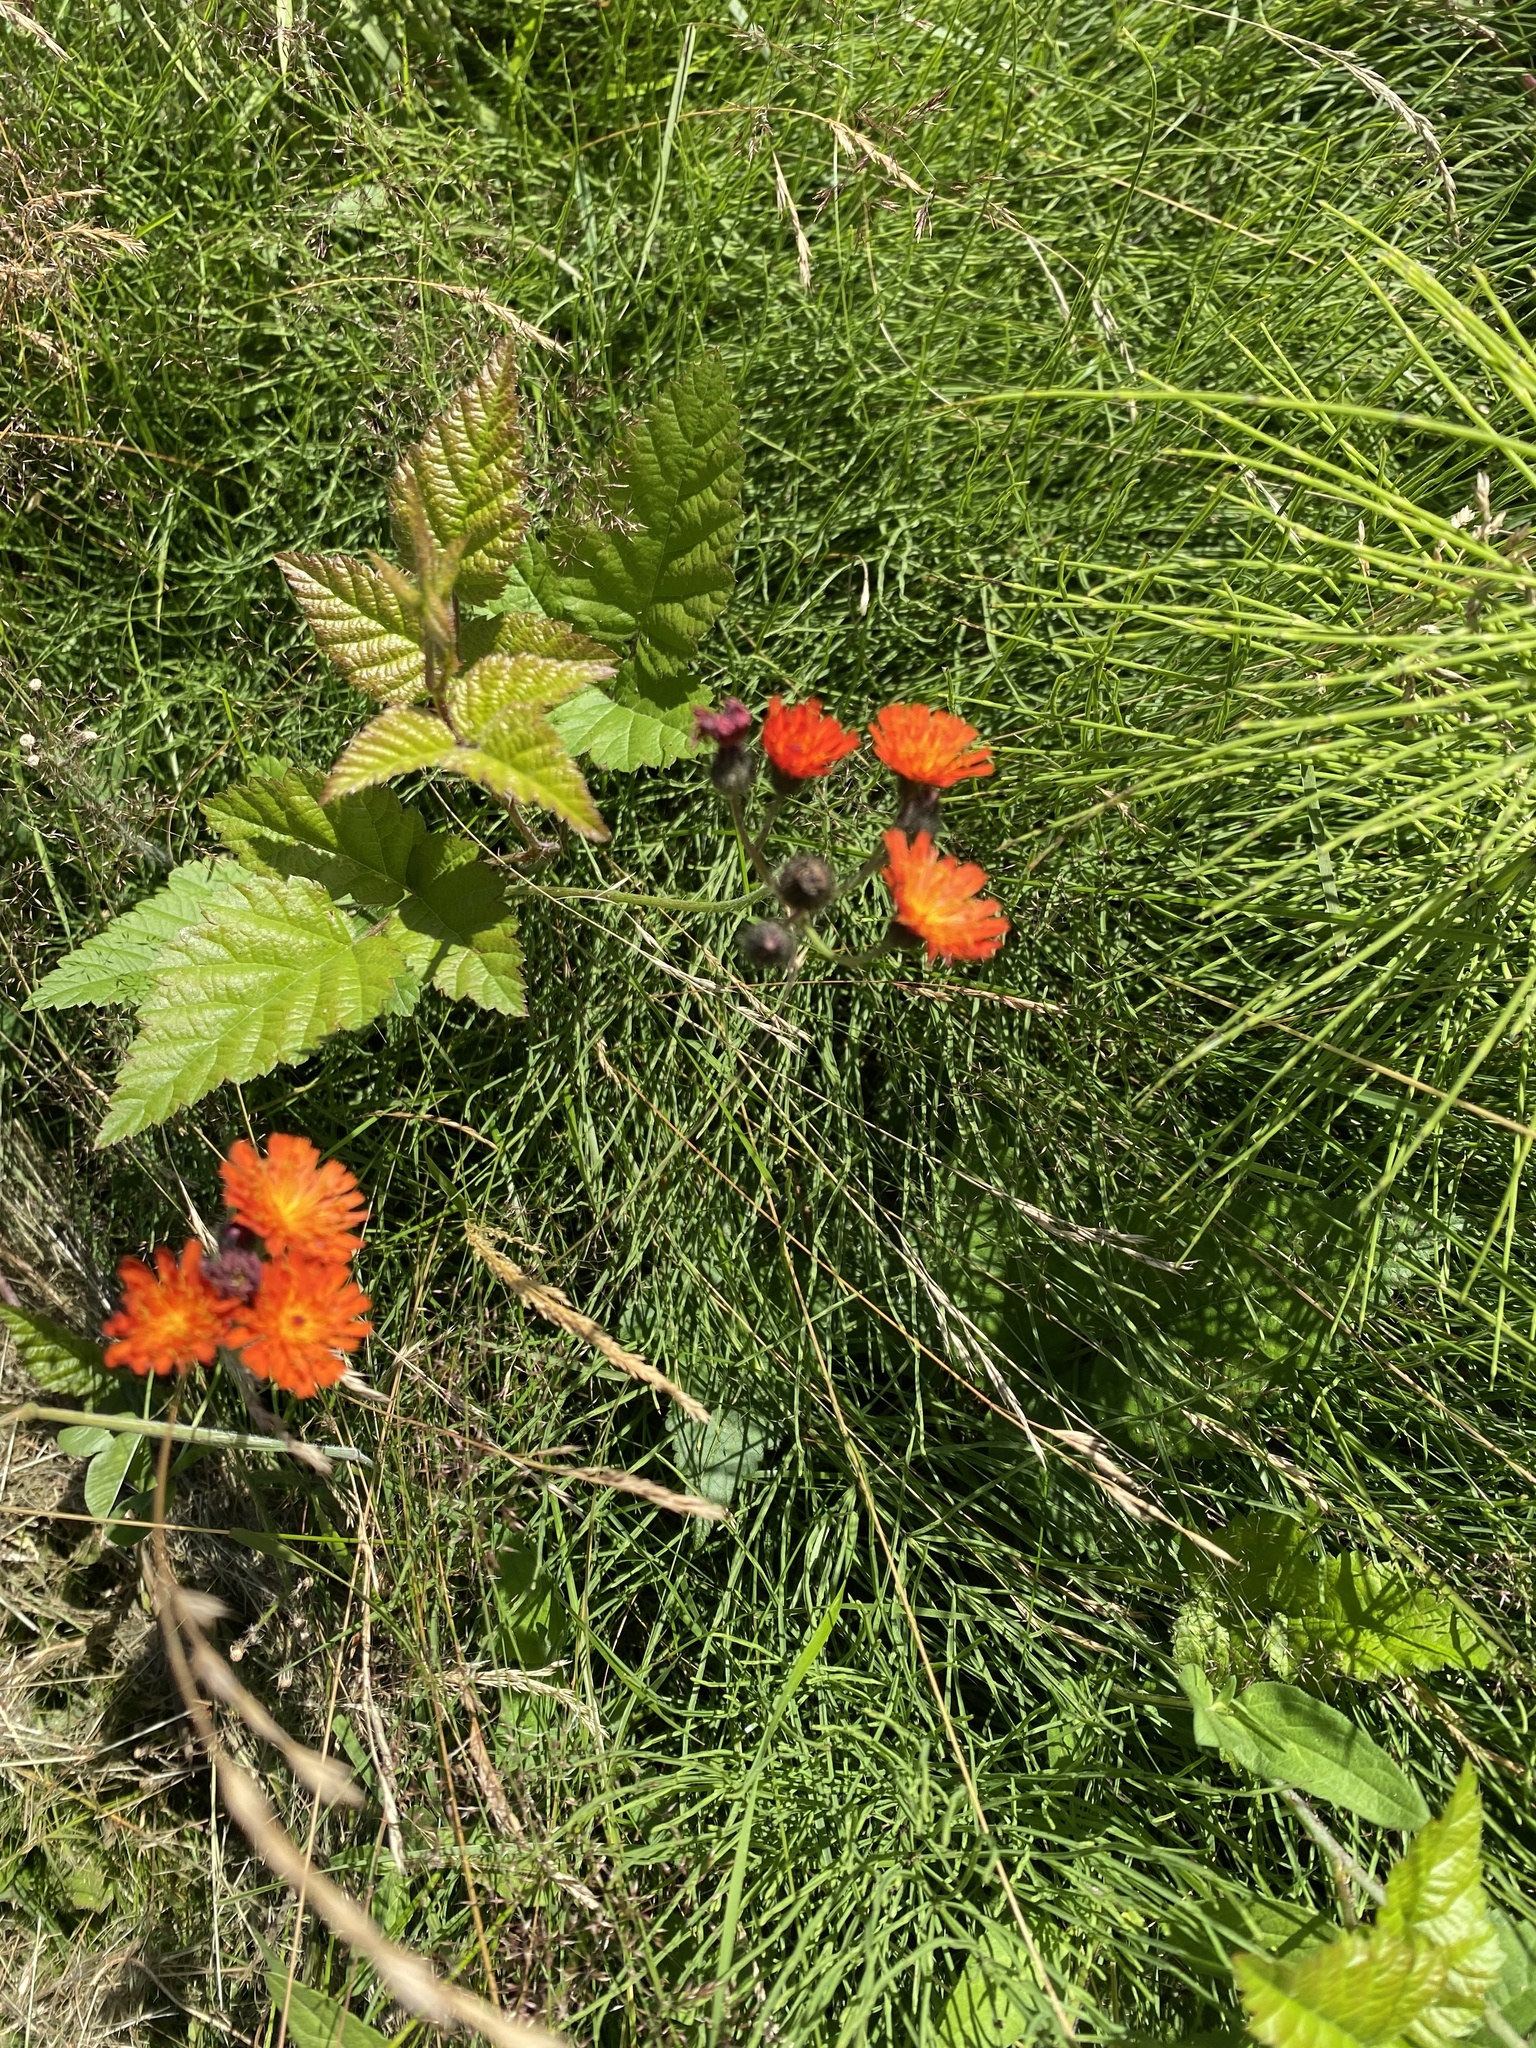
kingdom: Plantae
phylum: Tracheophyta
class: Magnoliopsida
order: Asterales
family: Asteraceae
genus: Pilosella
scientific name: Pilosella aurantiaca
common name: Fox-and-cubs
